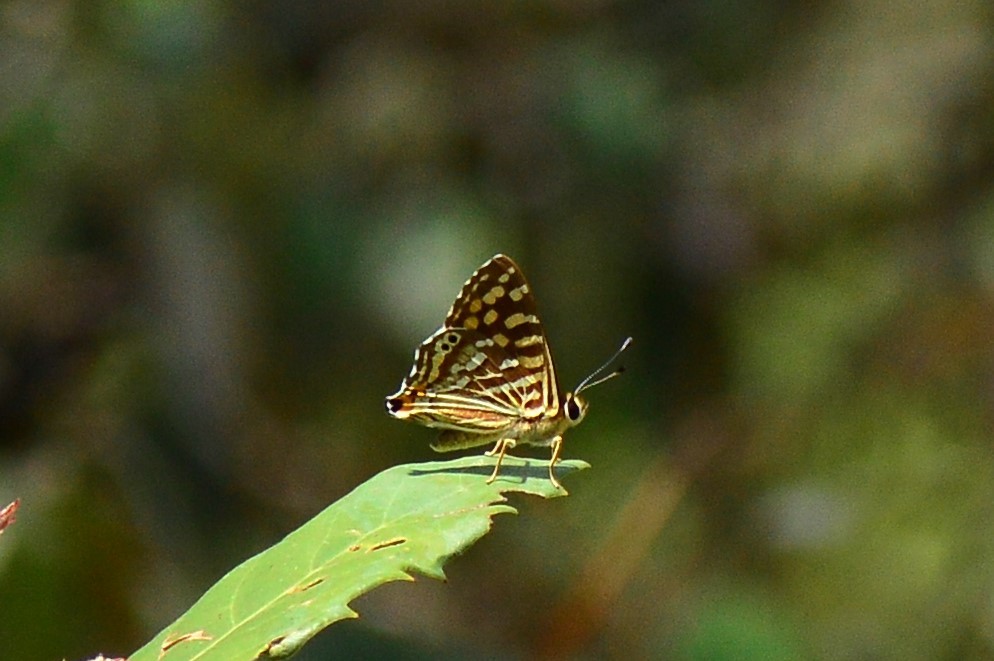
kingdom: Animalia
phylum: Arthropoda
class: Insecta
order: Lepidoptera
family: Lycaenidae
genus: Dodona
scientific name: Dodona durga
